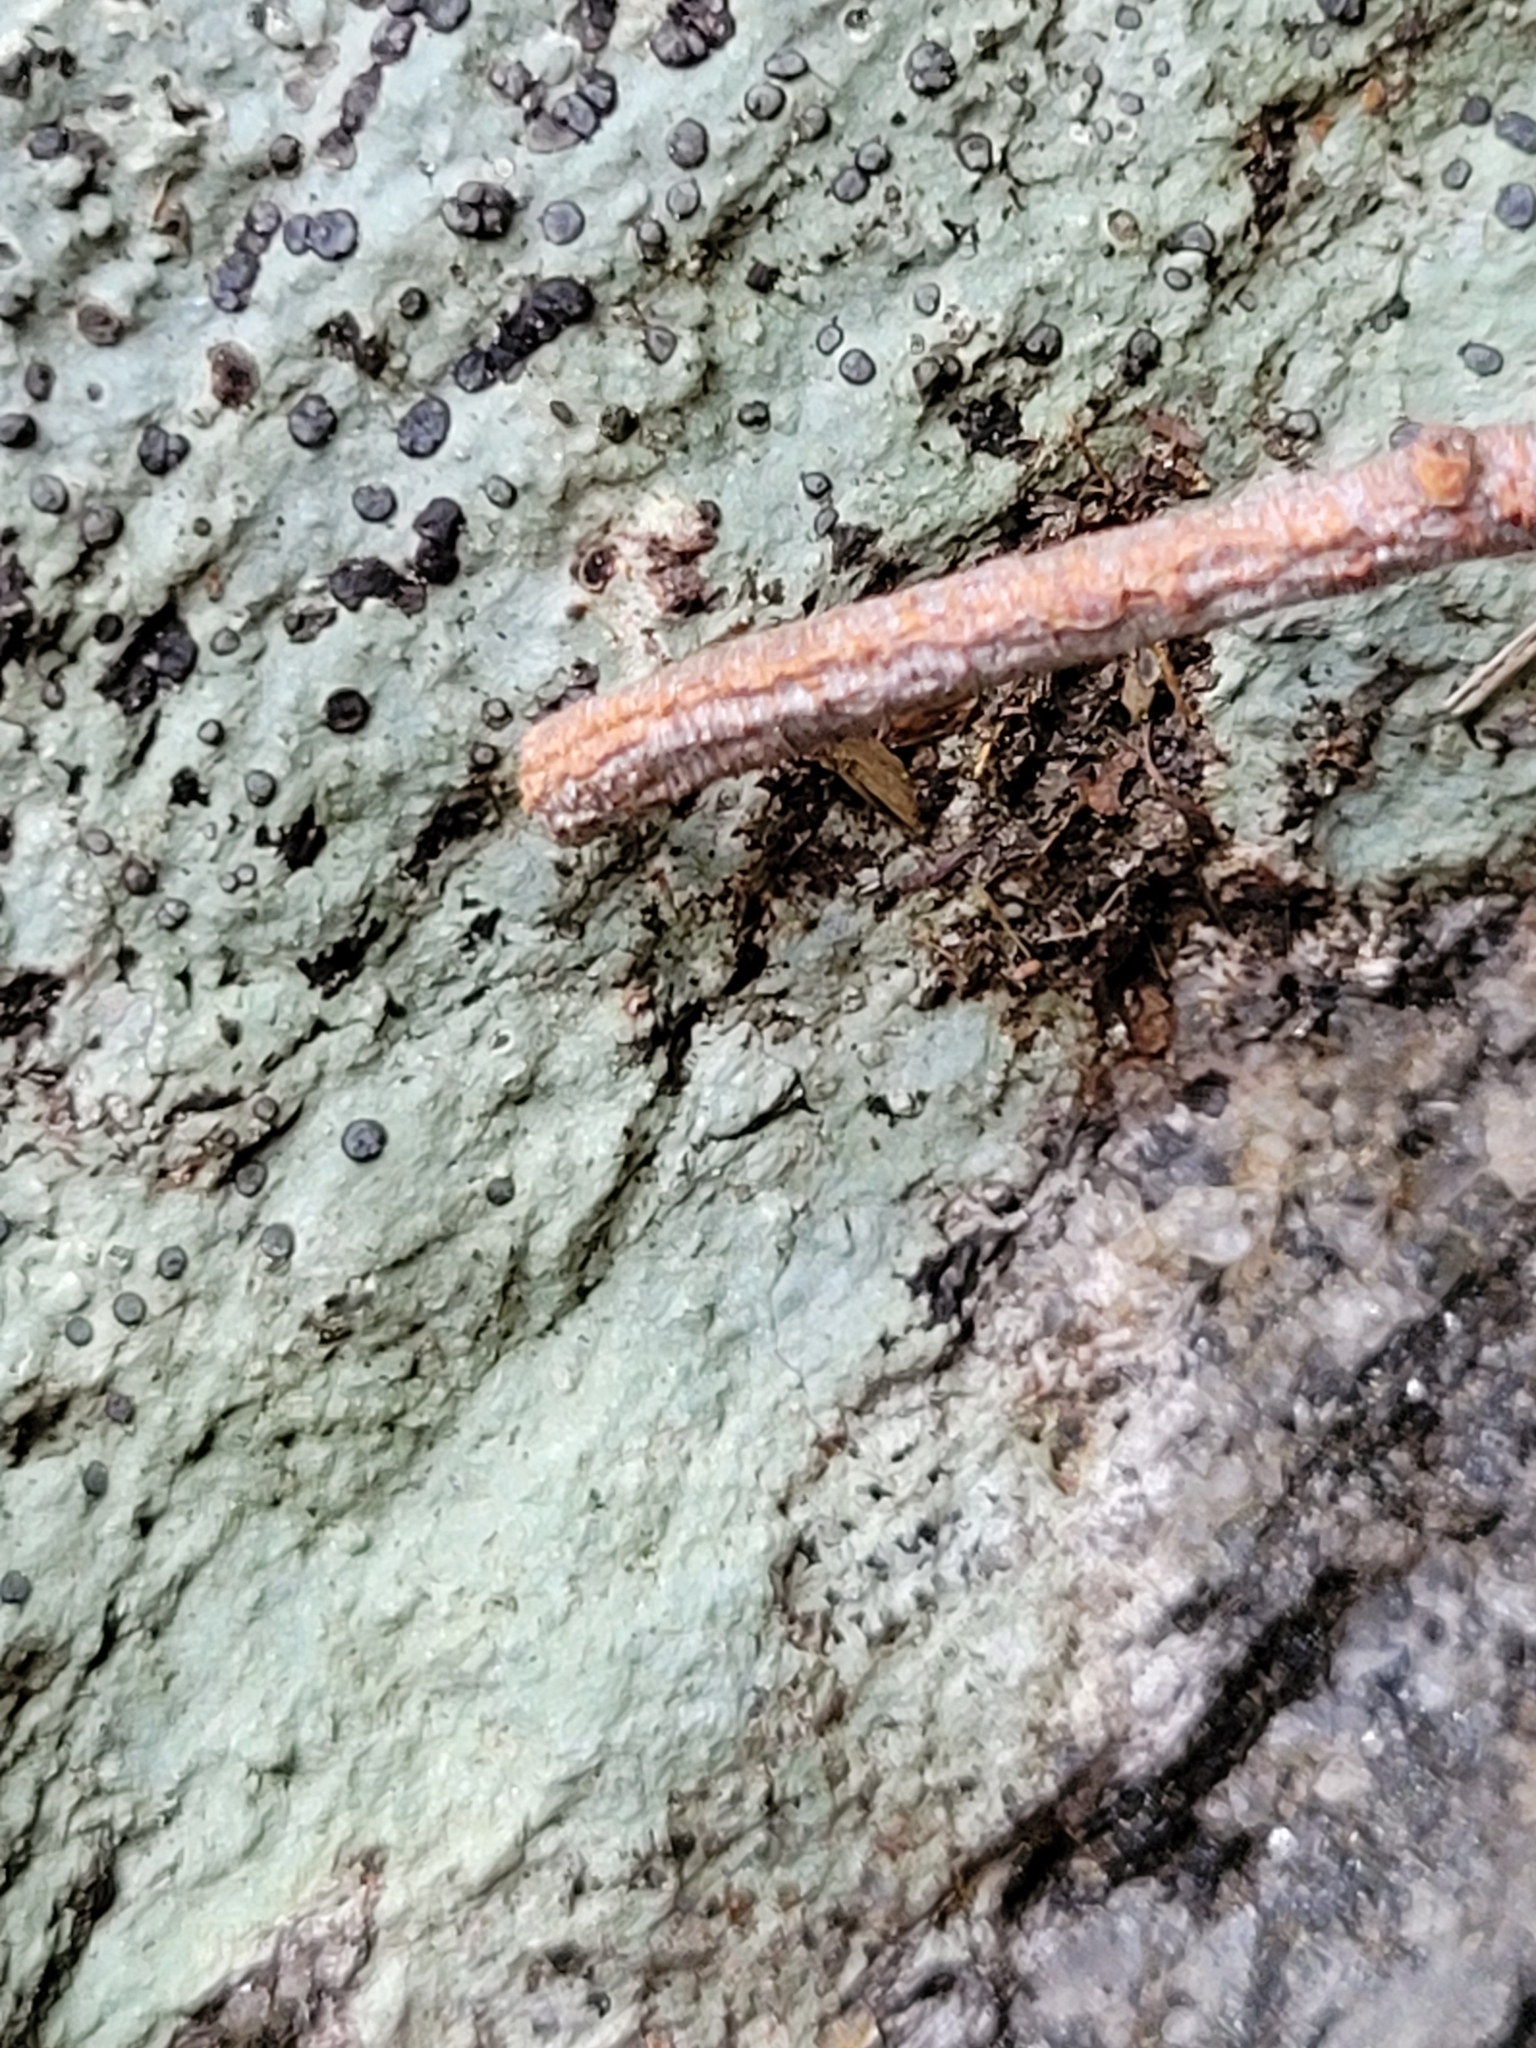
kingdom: Fungi
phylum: Ascomycota
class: Lecanoromycetes
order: Lecideales
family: Lecideaceae
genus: Porpidia
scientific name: Porpidia albocaerulescens
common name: Smokey-eyed boulder lichen
